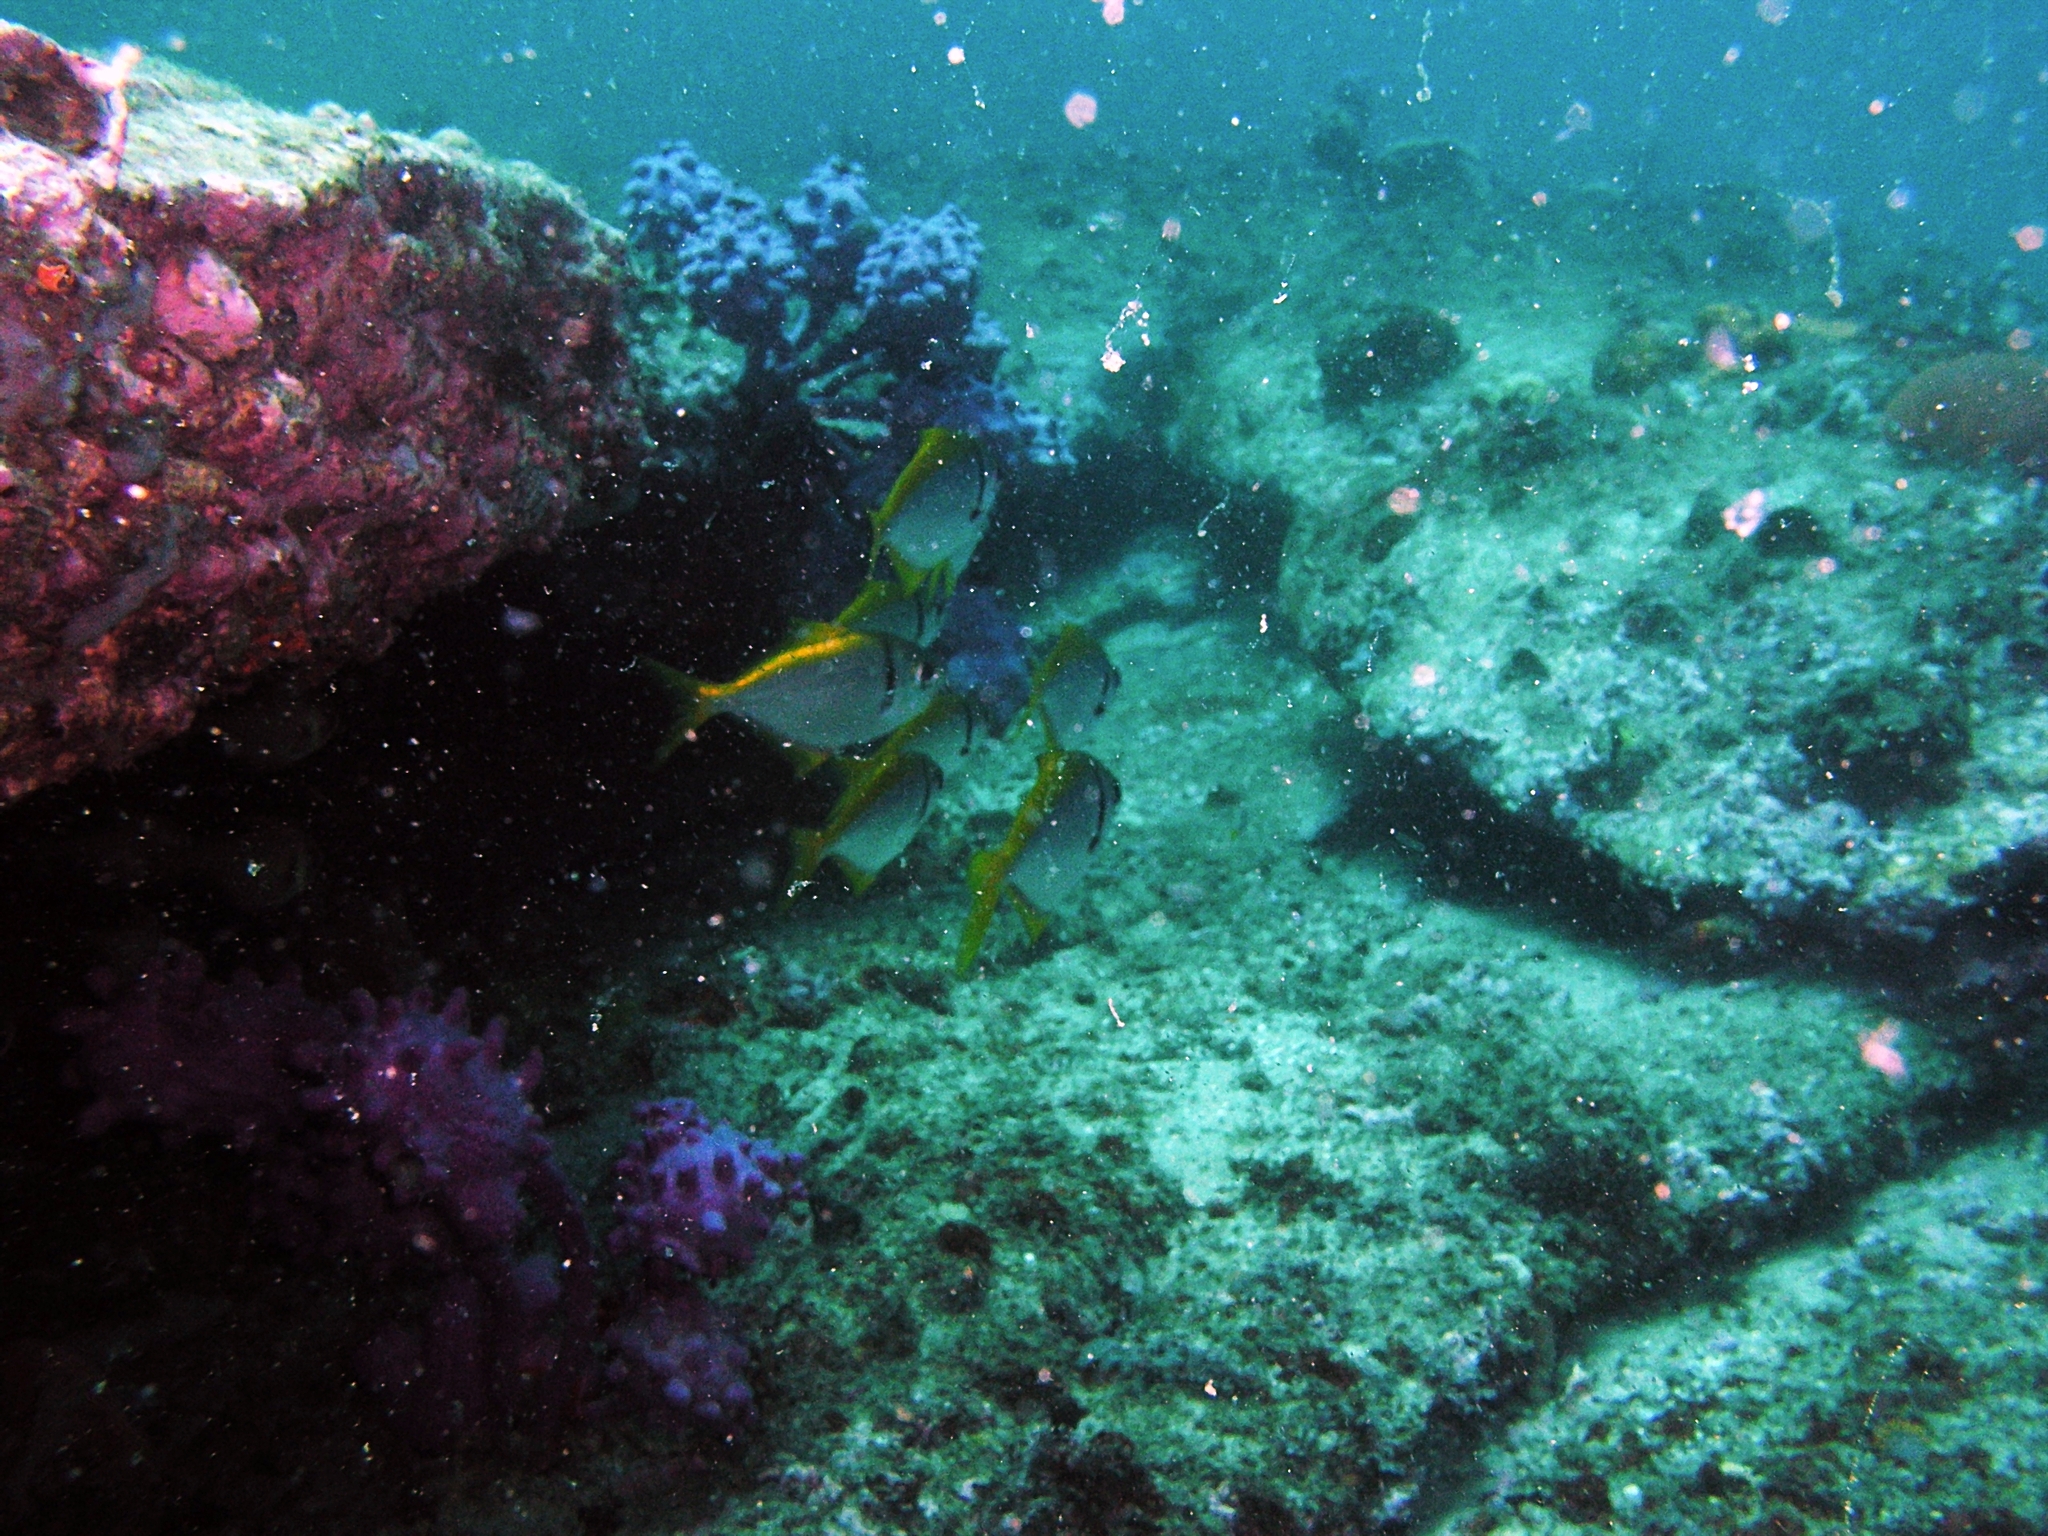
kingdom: Animalia
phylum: Chordata
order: Perciformes
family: Monodactylidae
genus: Schuettea
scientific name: Schuettea scalaripinnis
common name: Eastern pomfred
